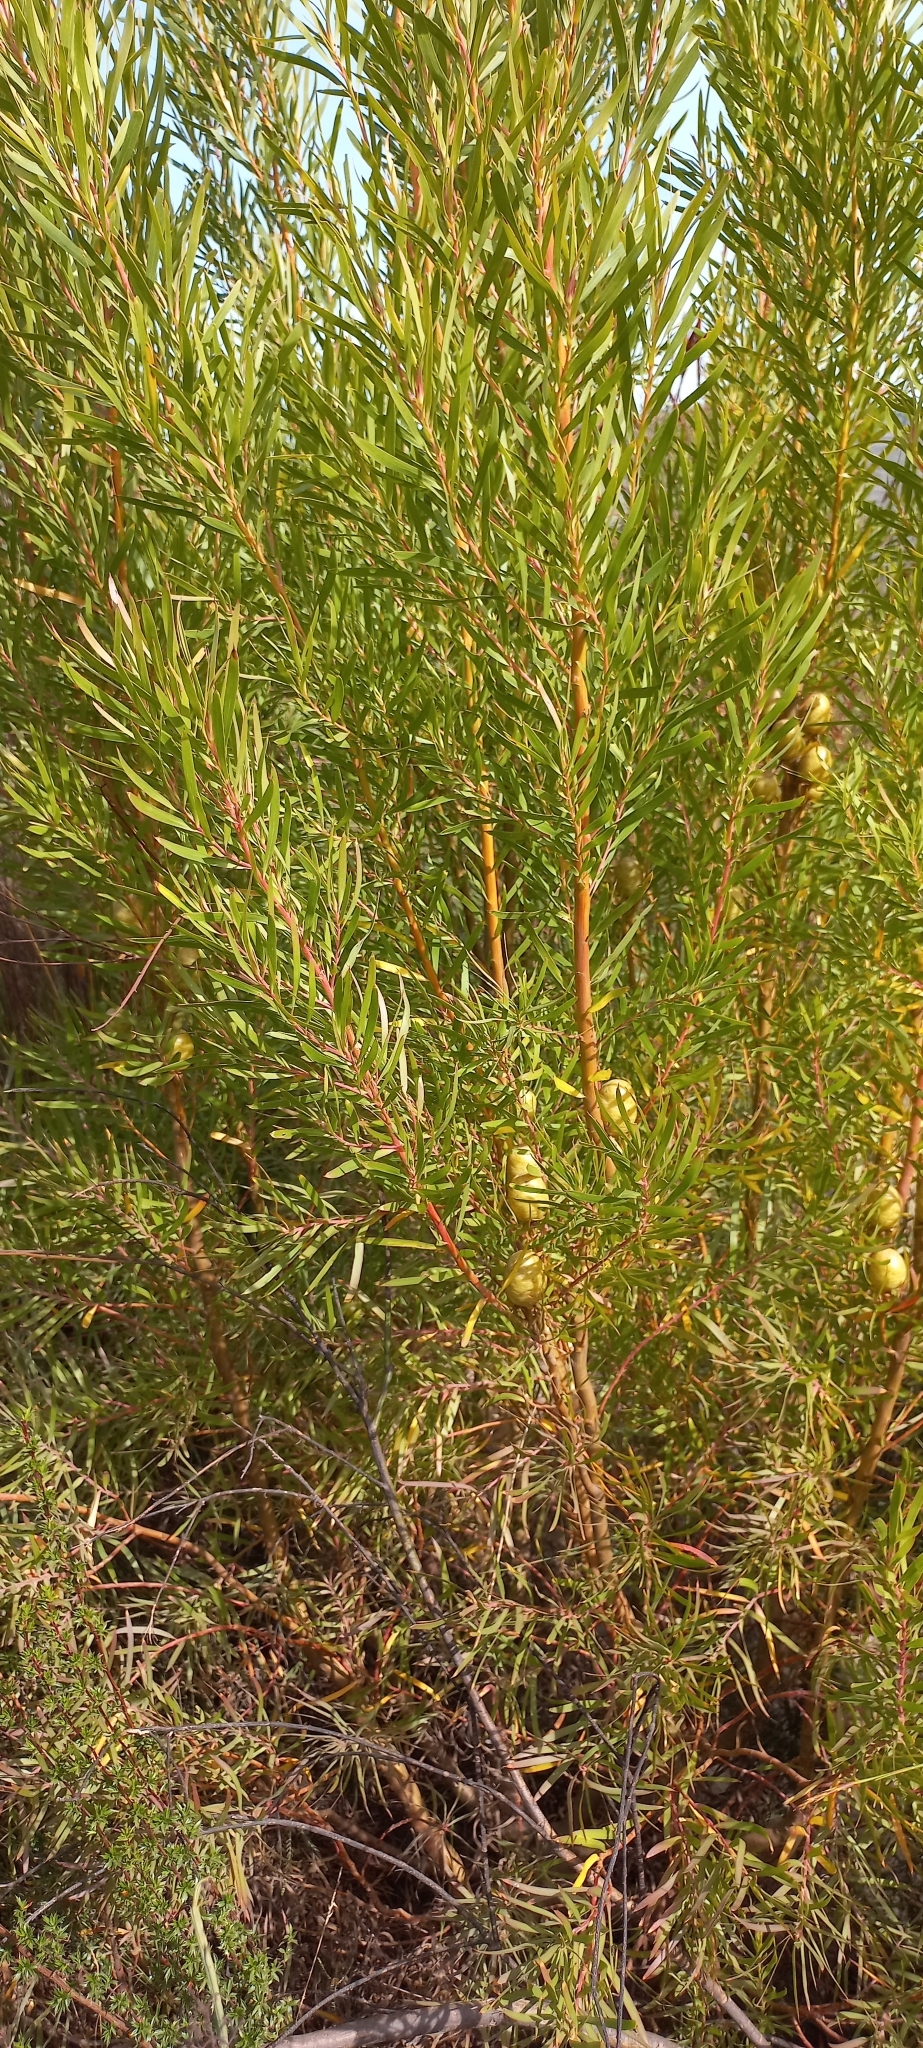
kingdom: Plantae
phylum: Tracheophyta
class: Magnoliopsida
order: Proteales
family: Proteaceae
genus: Leucadendron
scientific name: Leucadendron salicifolium
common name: Common stream conebush
